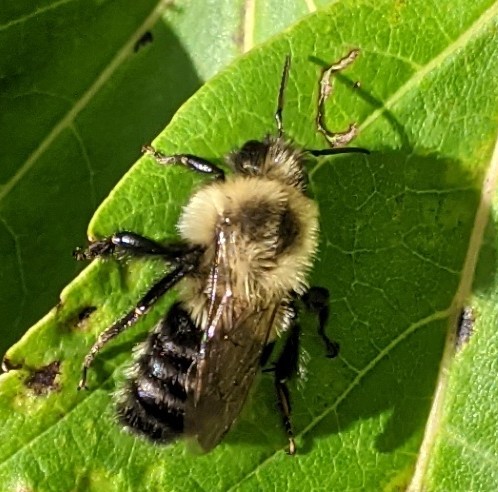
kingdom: Animalia
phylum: Arthropoda
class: Insecta
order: Hymenoptera
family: Apidae
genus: Bombus
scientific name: Bombus impatiens
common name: Common eastern bumble bee
